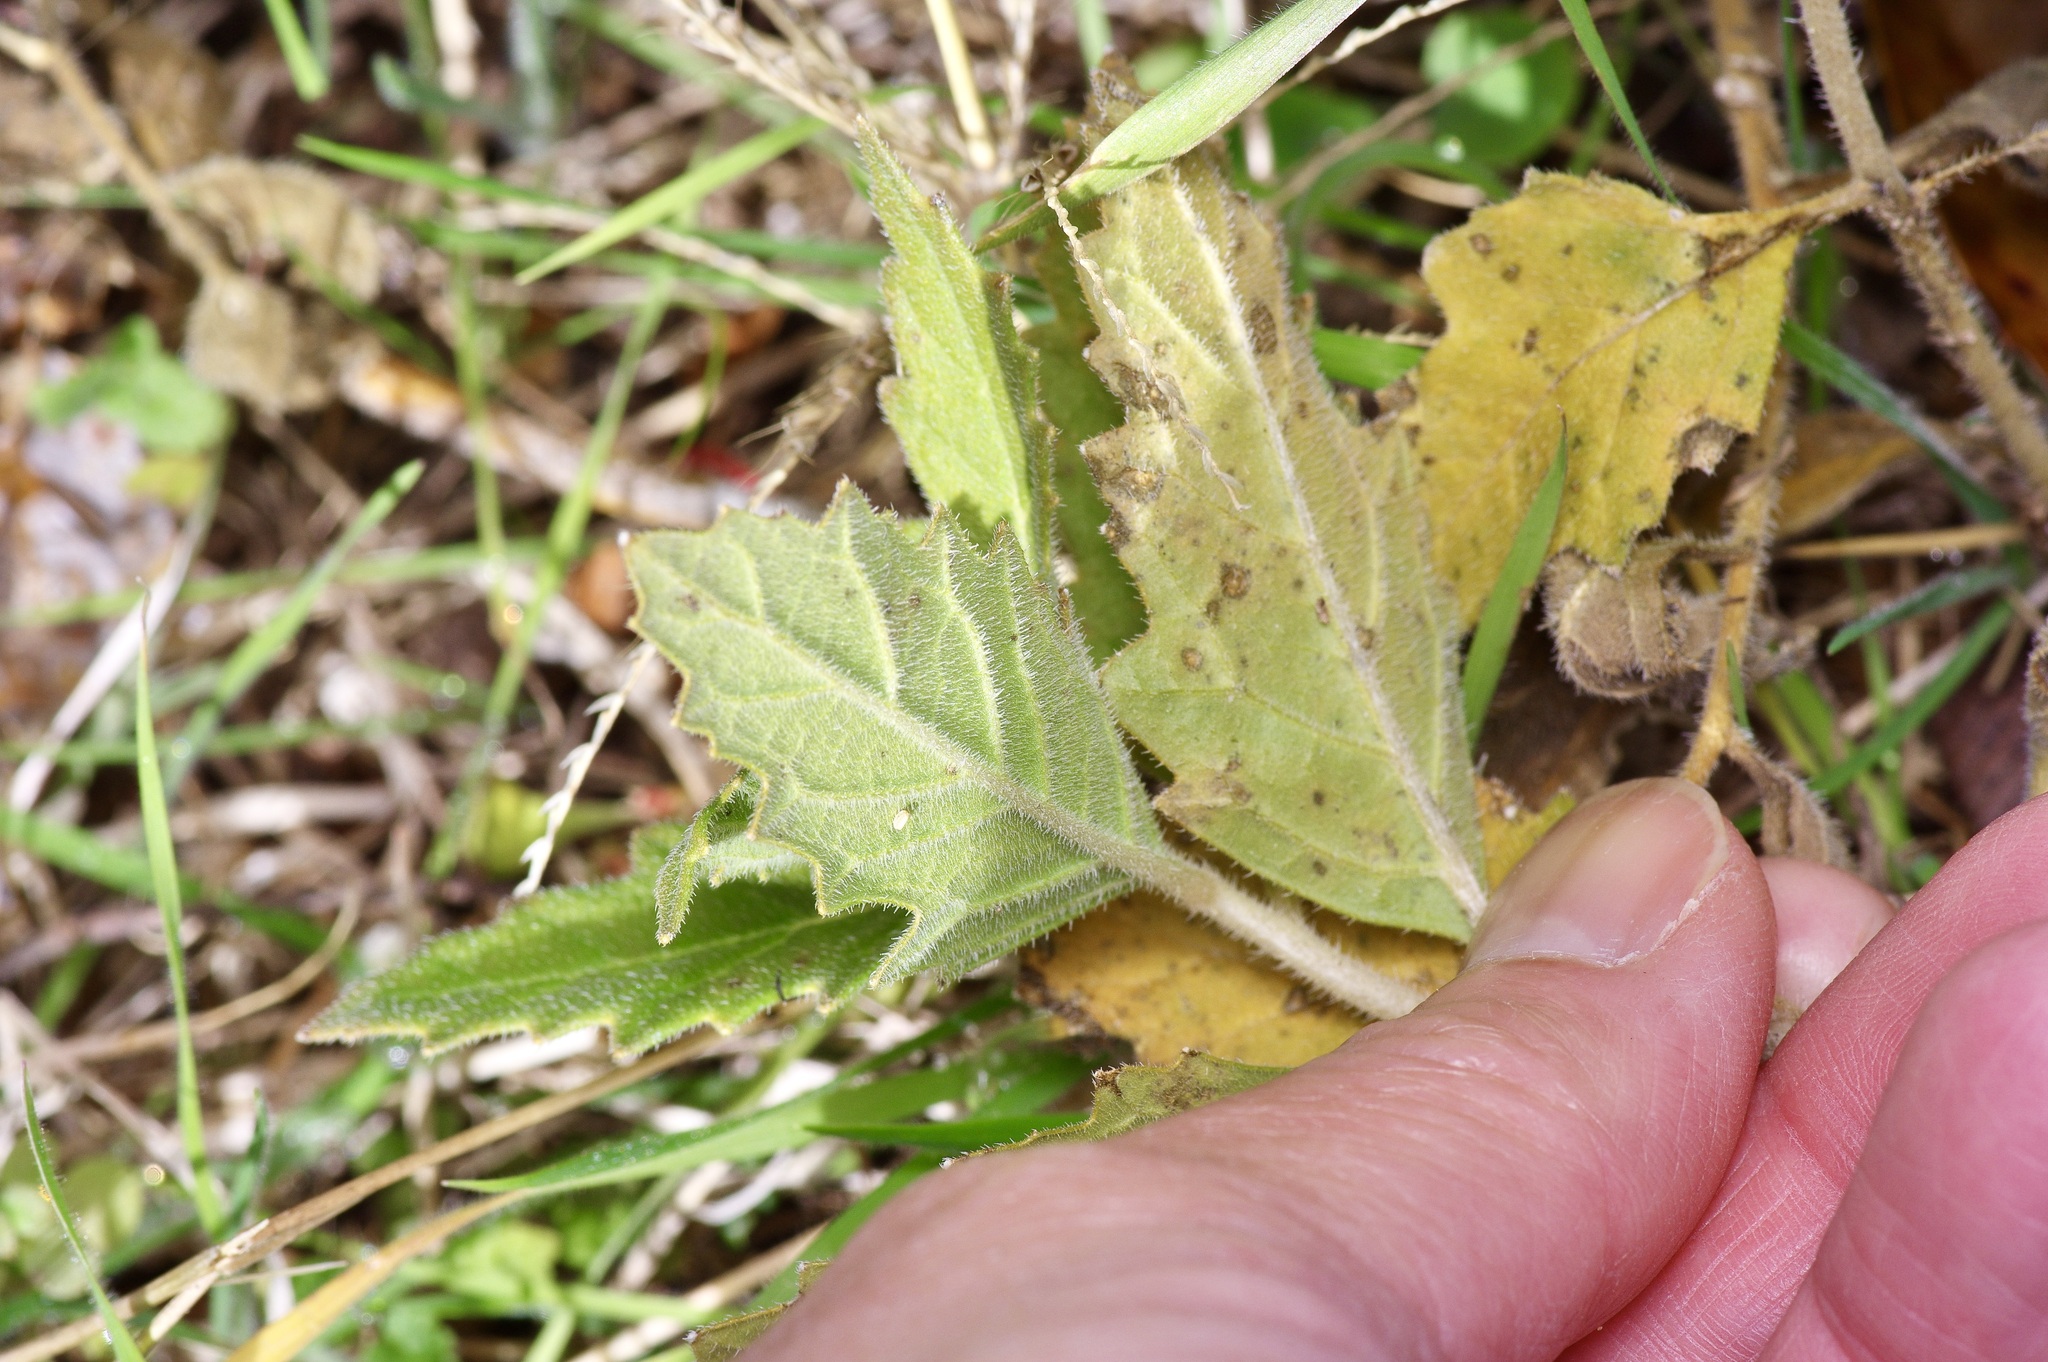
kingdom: Plantae
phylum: Tracheophyta
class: Magnoliopsida
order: Cornales
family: Loasaceae
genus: Mentzelia
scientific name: Mentzelia oligosperma
